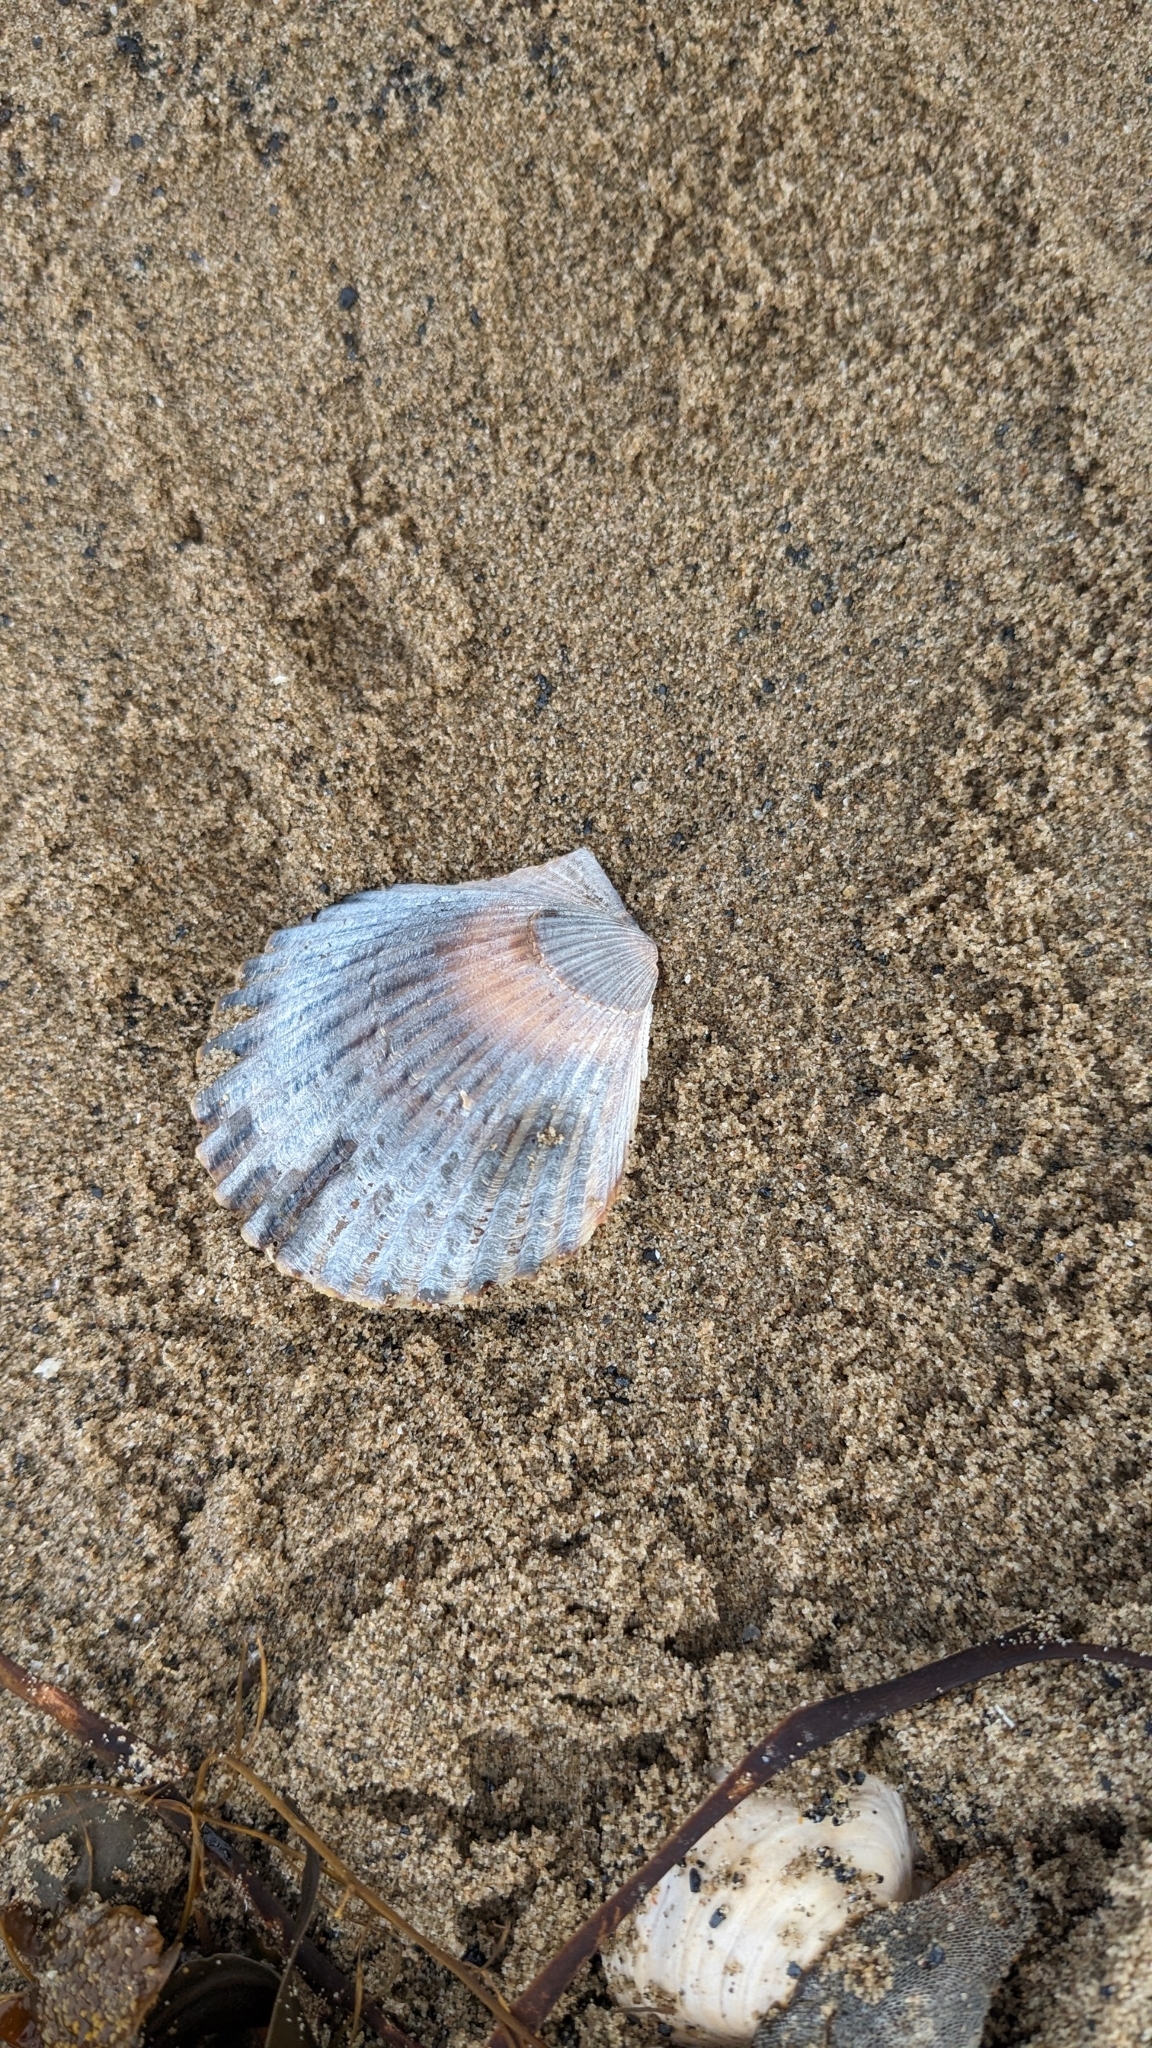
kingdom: Animalia
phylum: Mollusca
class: Bivalvia
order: Pectinida
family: Pectinidae
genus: Argopecten
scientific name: Argopecten irradians
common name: Atlantic bay scallop
